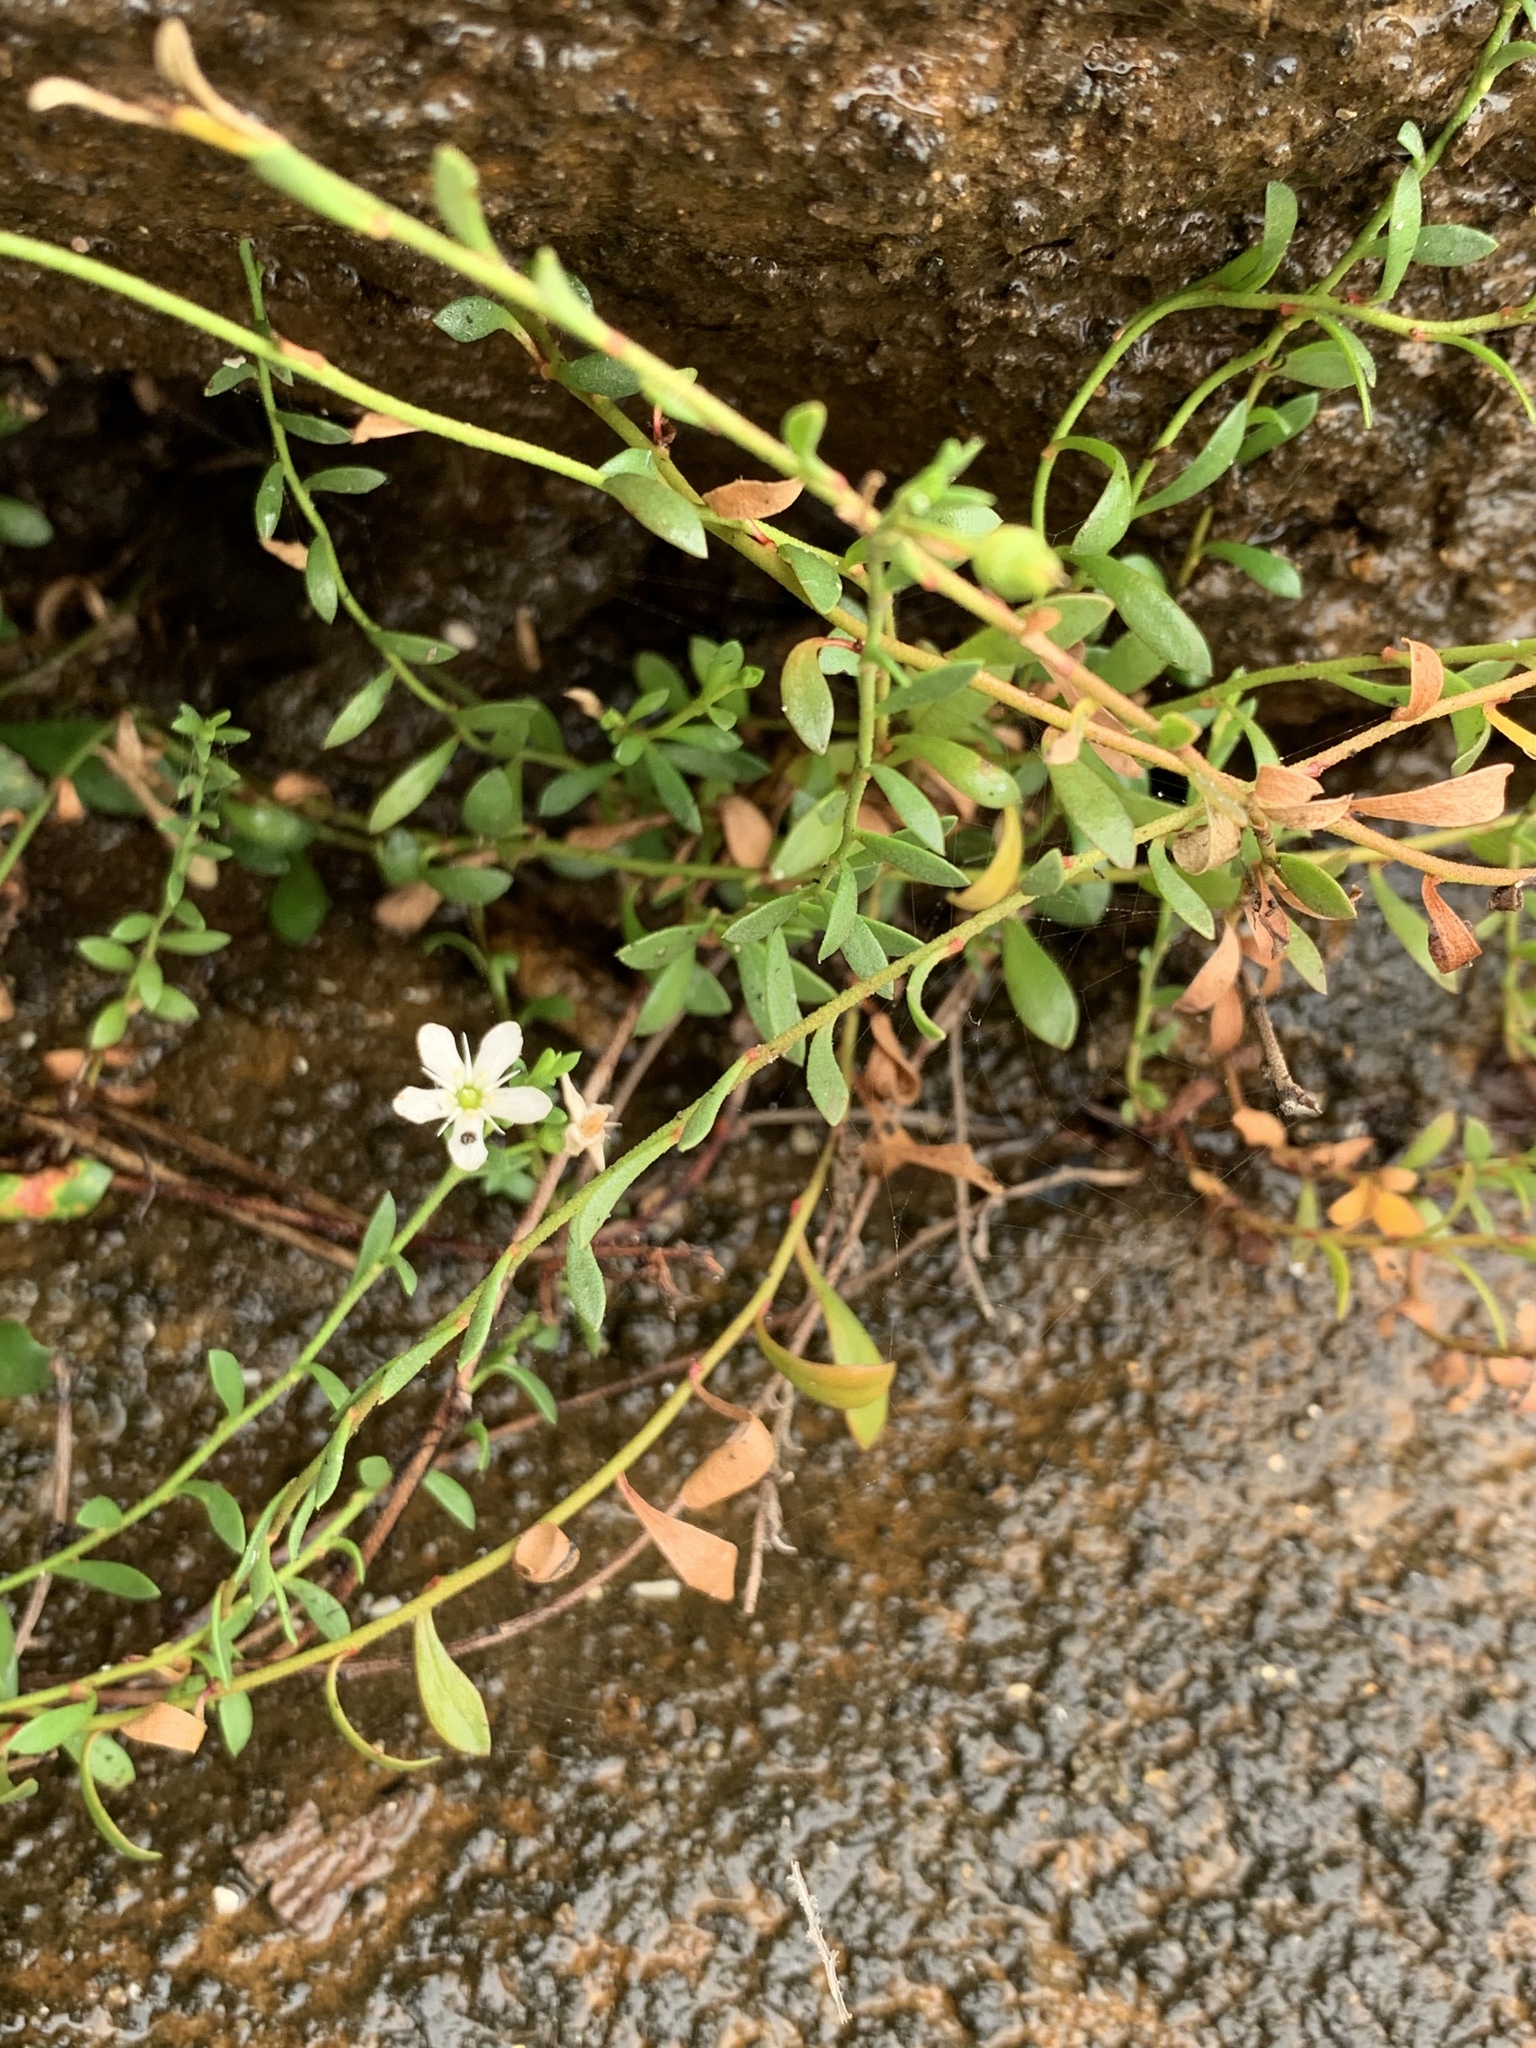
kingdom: Plantae
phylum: Tracheophyta
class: Magnoliopsida
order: Ericales
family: Primulaceae
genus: Samolus
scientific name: Samolus repens
